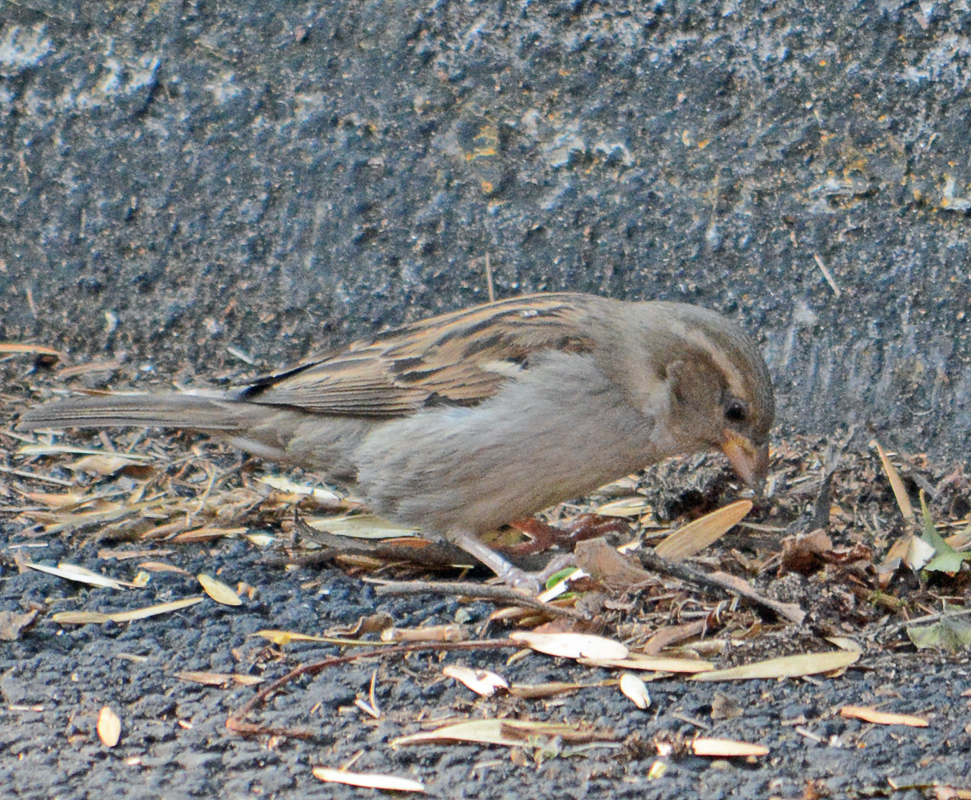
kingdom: Animalia
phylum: Chordata
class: Aves
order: Passeriformes
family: Passeridae
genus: Passer
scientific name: Passer domesticus
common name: House sparrow
